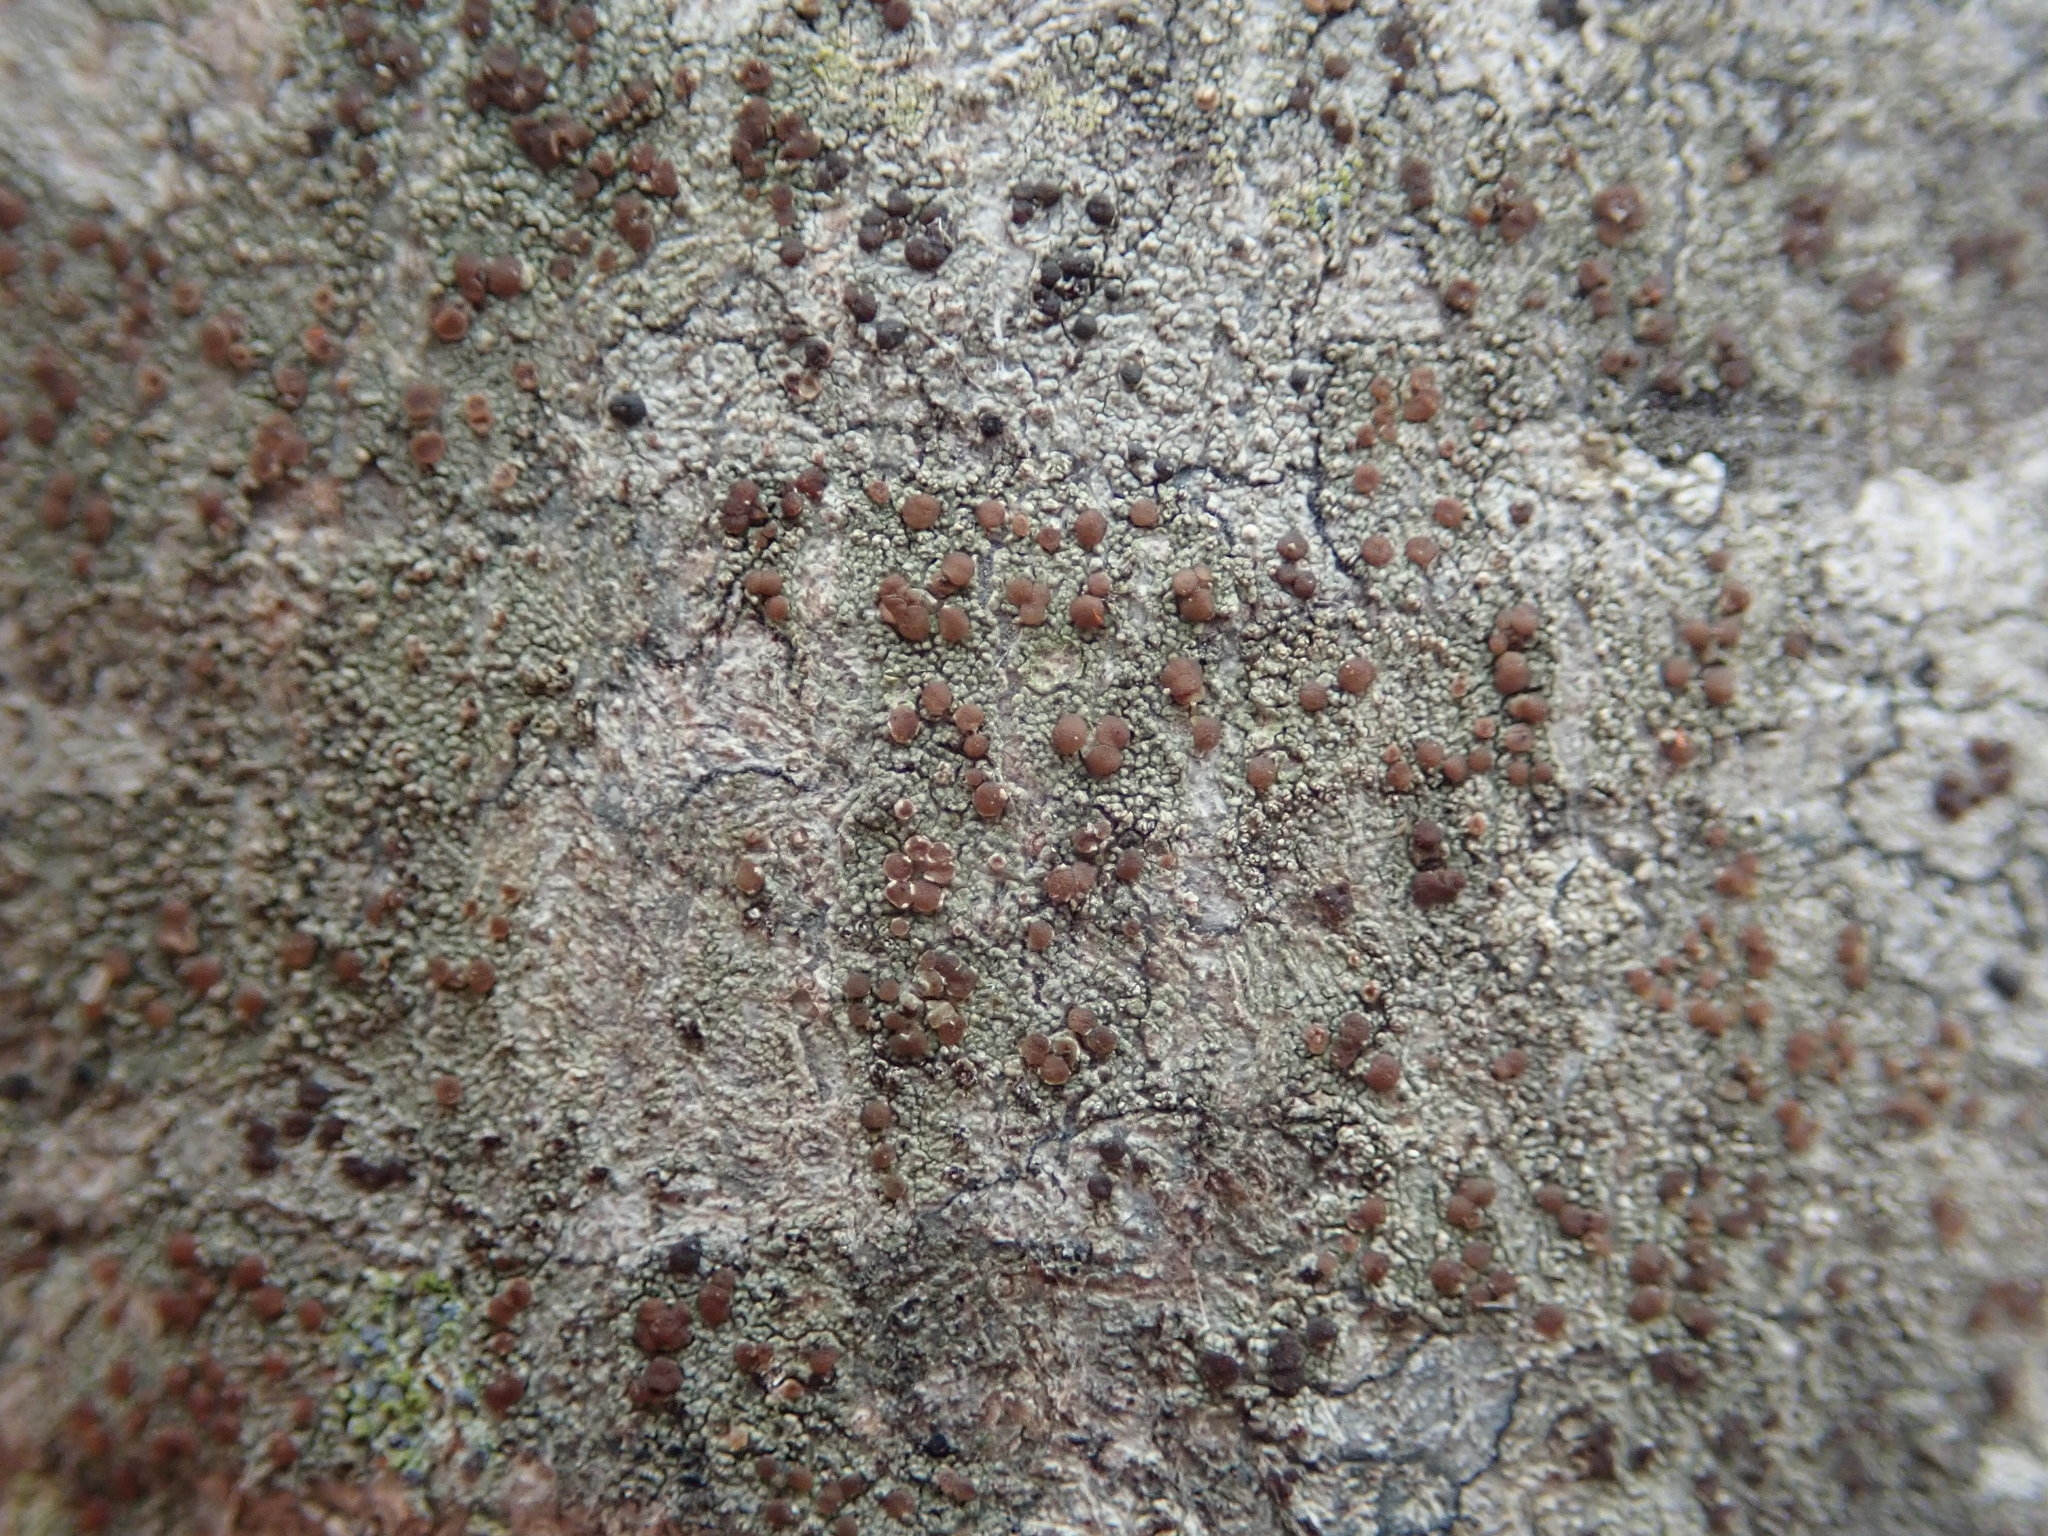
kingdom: Fungi
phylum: Ascomycota
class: Lecanoromycetes
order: Lecanorales
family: Lecanoraceae
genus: Traponora
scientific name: Traponora varians
